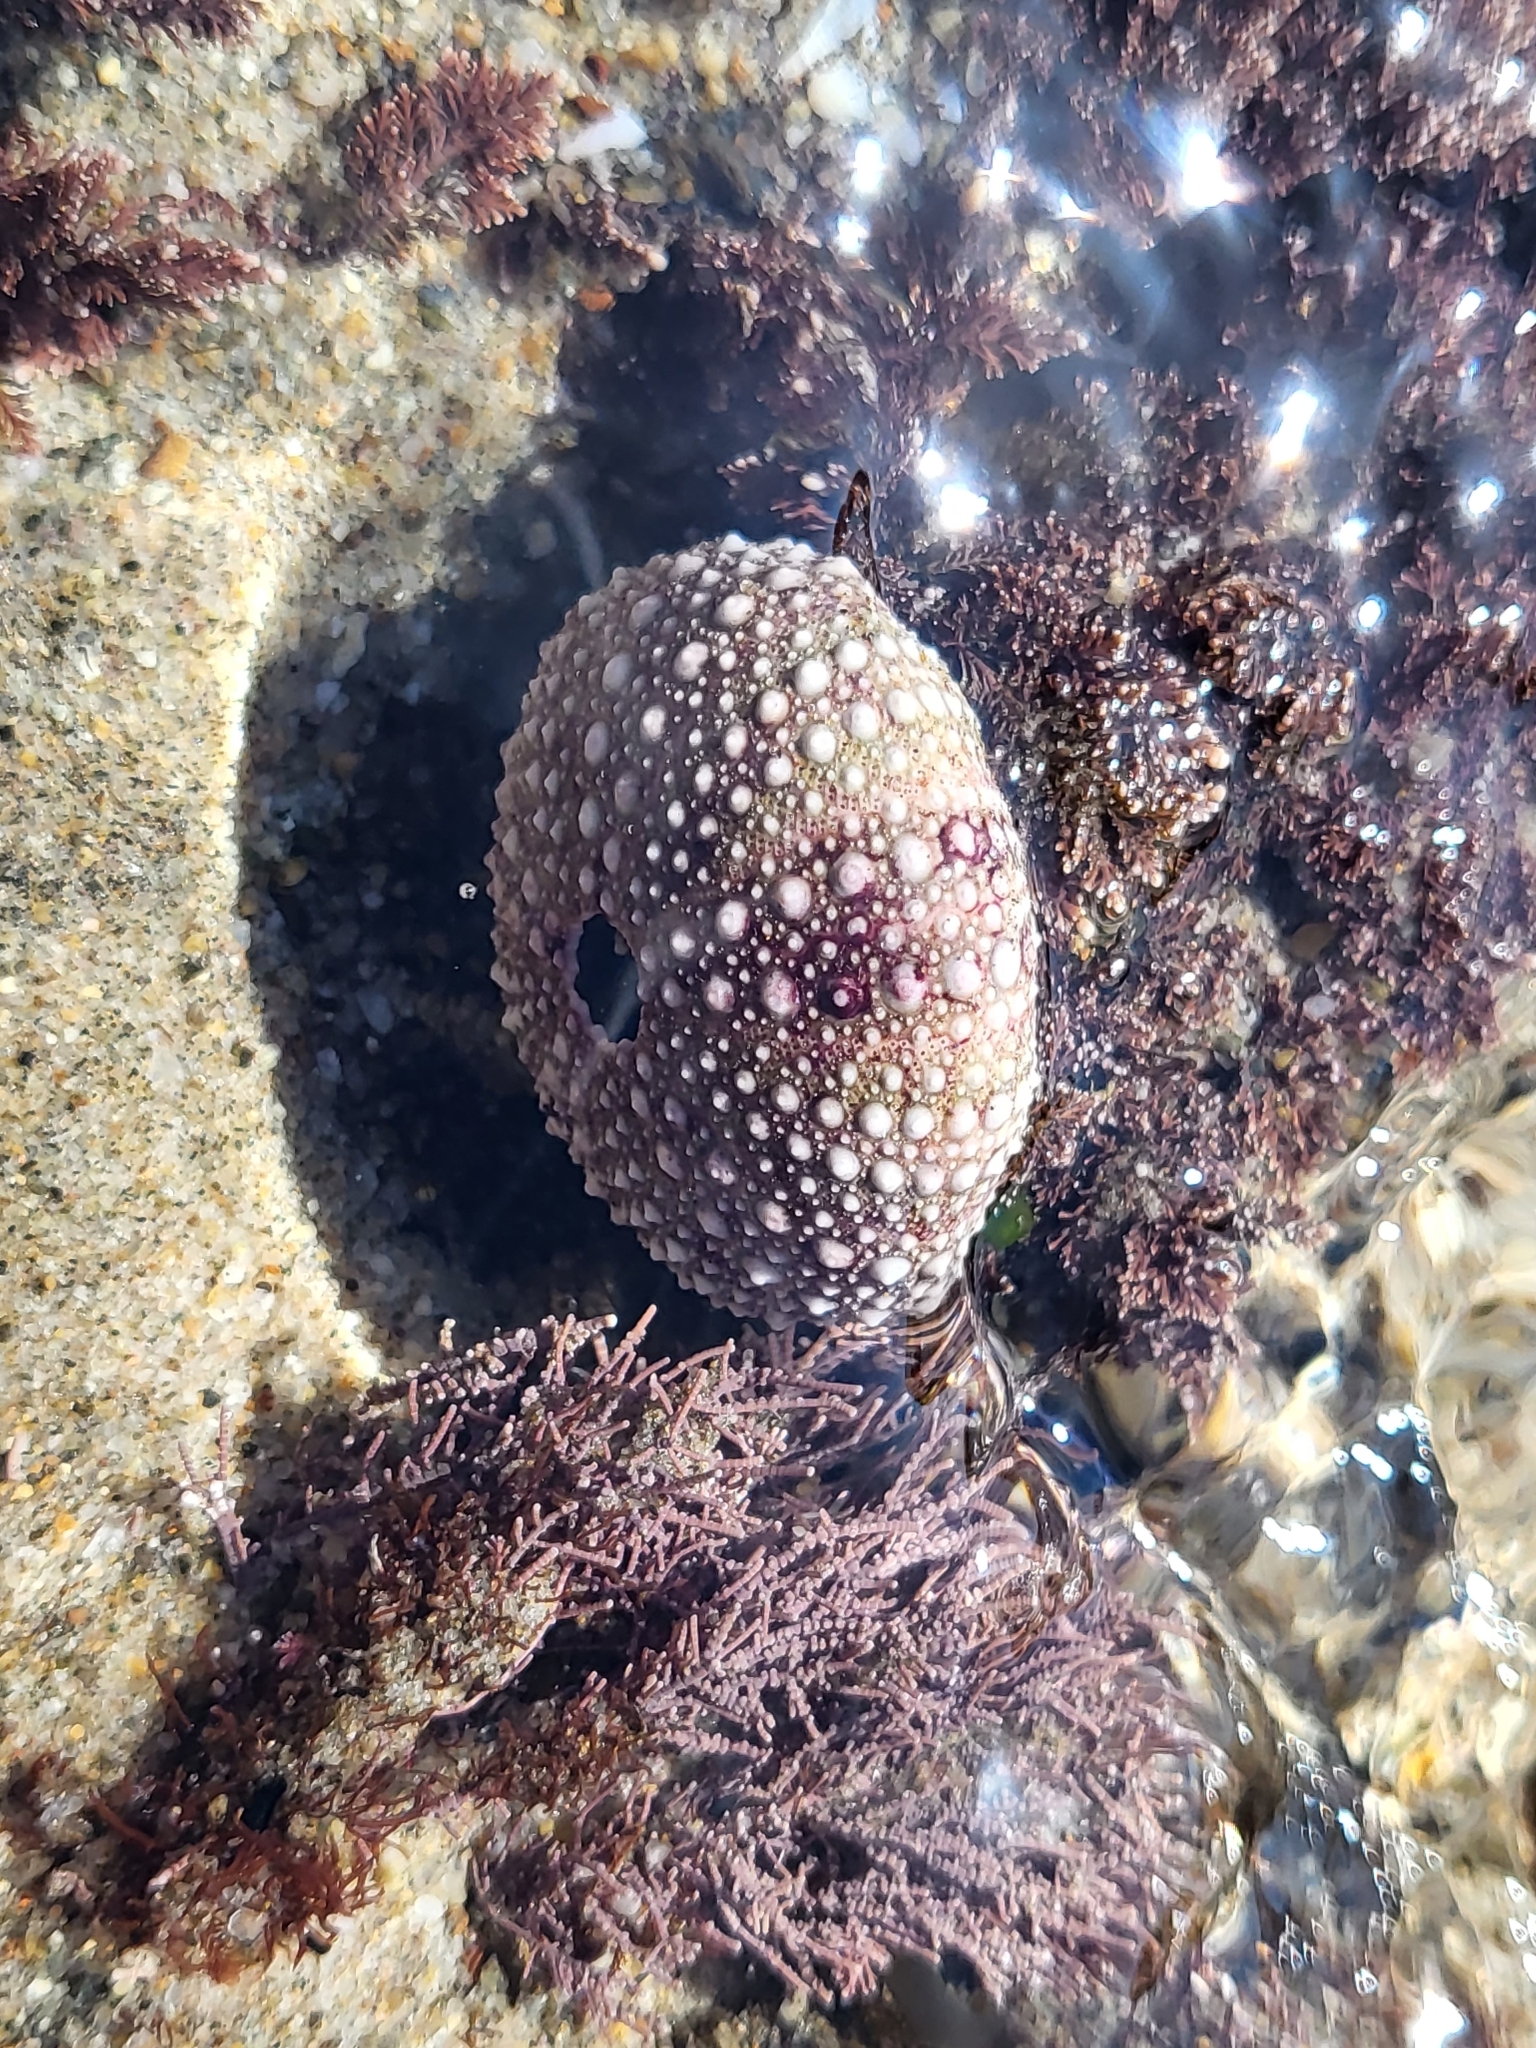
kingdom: Animalia
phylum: Echinodermata
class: Echinoidea
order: Camarodonta
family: Strongylocentrotidae
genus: Strongylocentrotus
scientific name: Strongylocentrotus purpuratus
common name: Purple sea urchin
